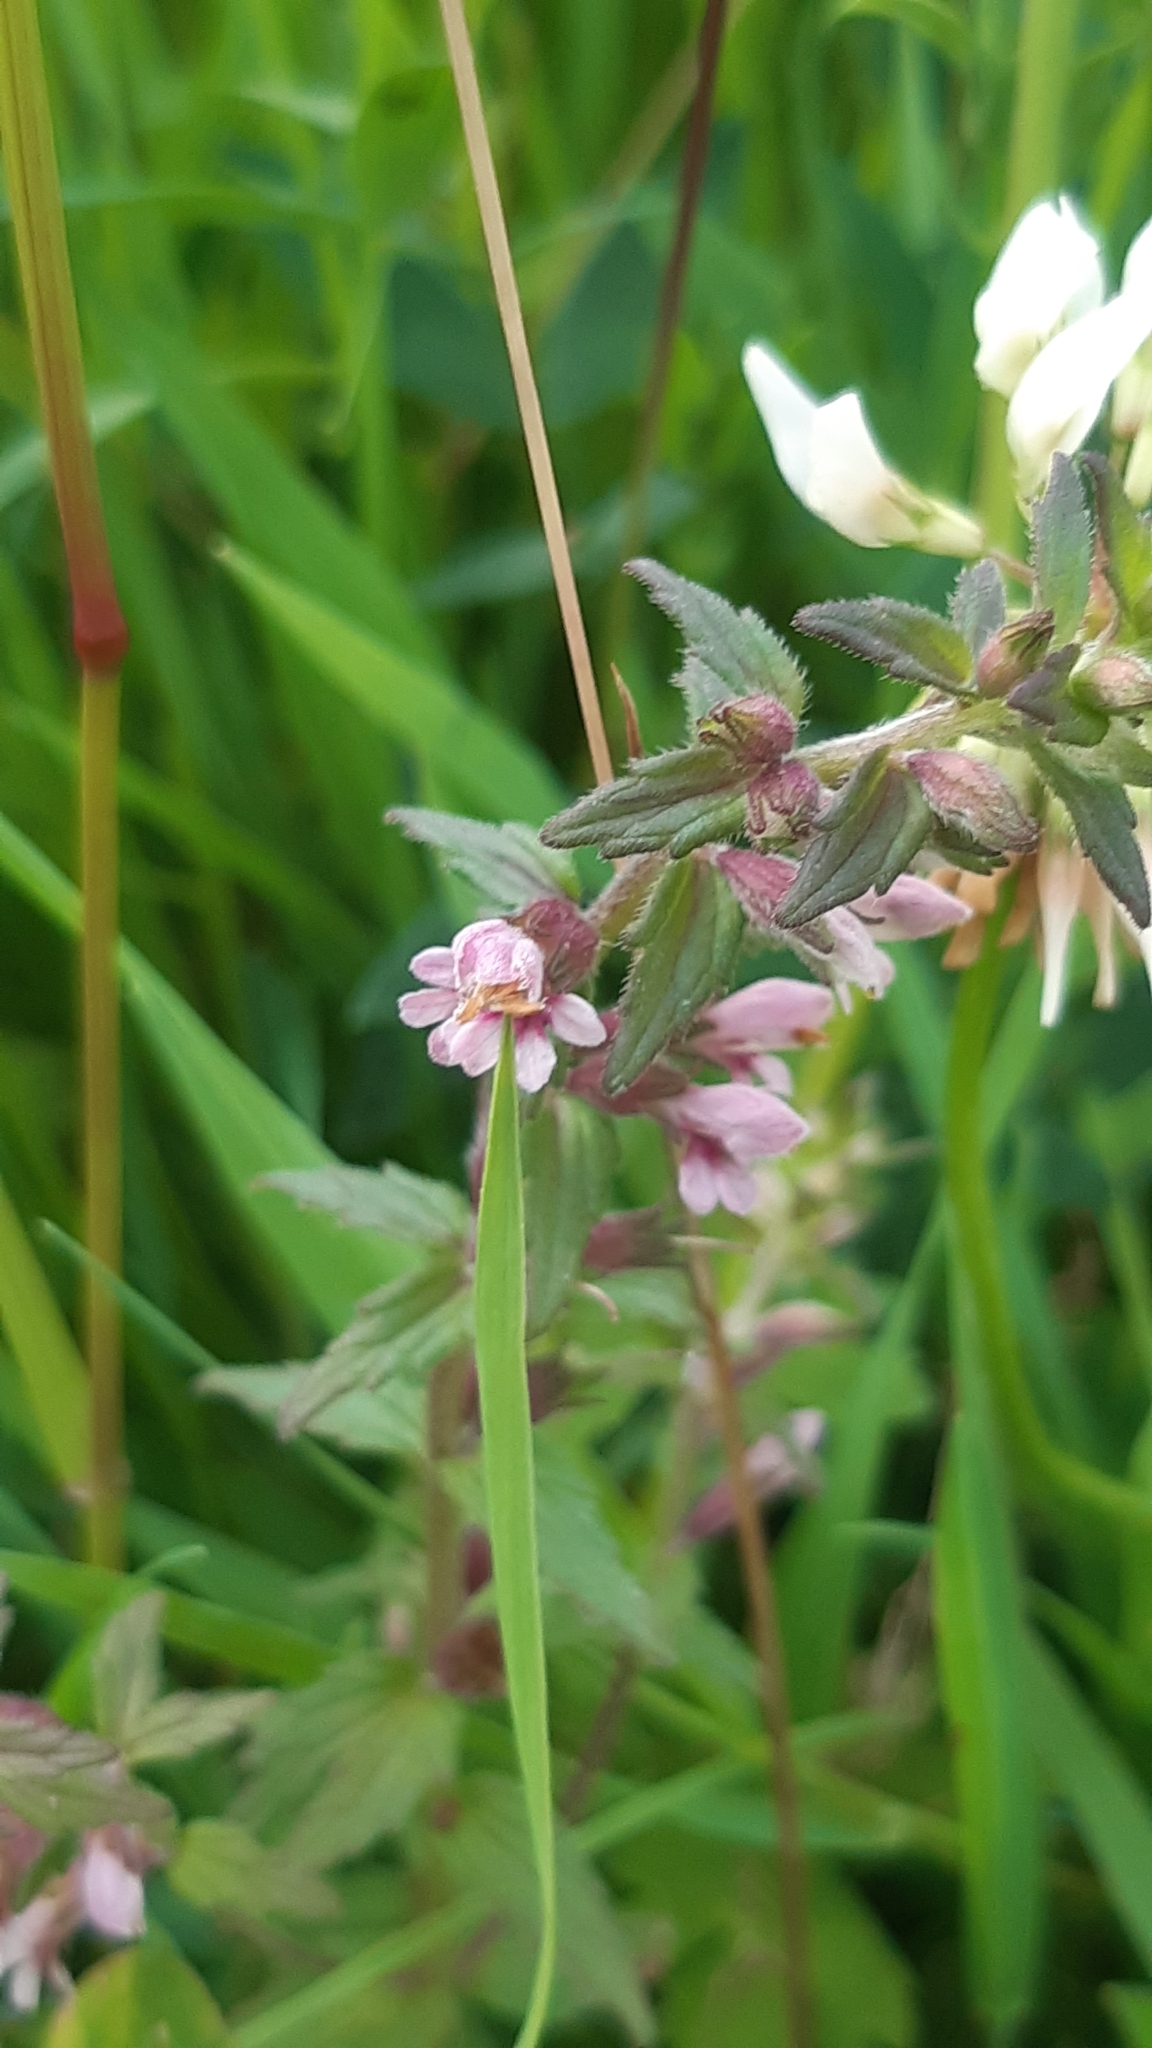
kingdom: Plantae
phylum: Tracheophyta
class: Magnoliopsida
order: Lamiales
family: Orobanchaceae
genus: Odontites
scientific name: Odontites vernus
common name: Red bartsia
